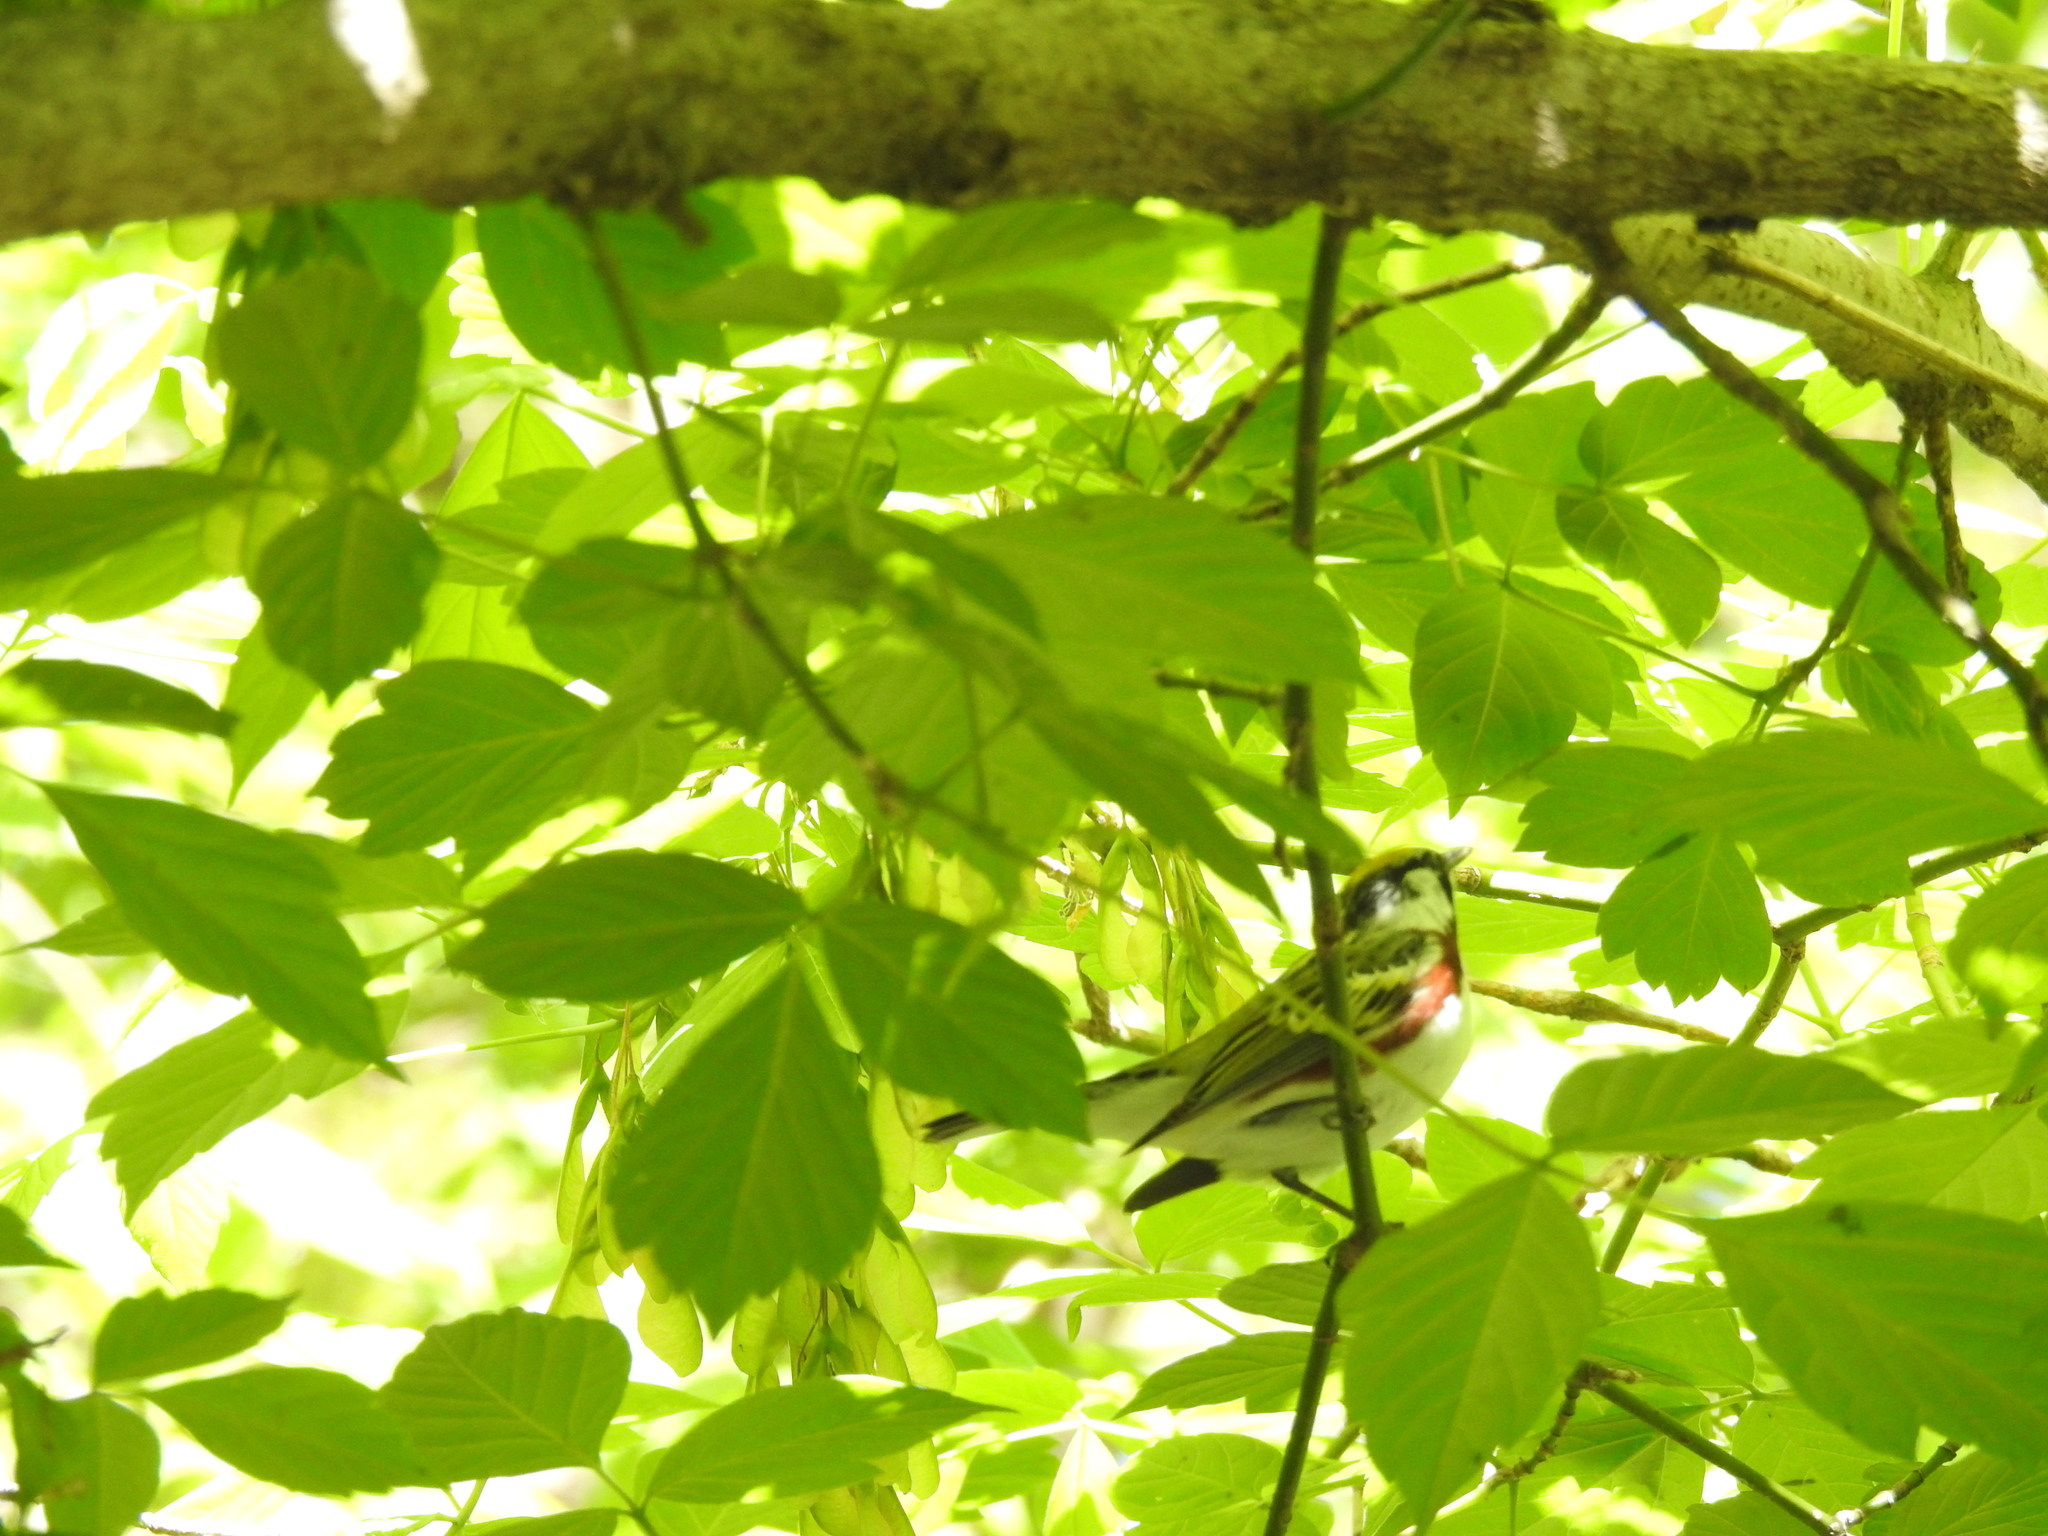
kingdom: Animalia
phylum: Chordata
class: Aves
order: Passeriformes
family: Parulidae
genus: Setophaga
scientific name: Setophaga pensylvanica
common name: Chestnut-sided warbler
